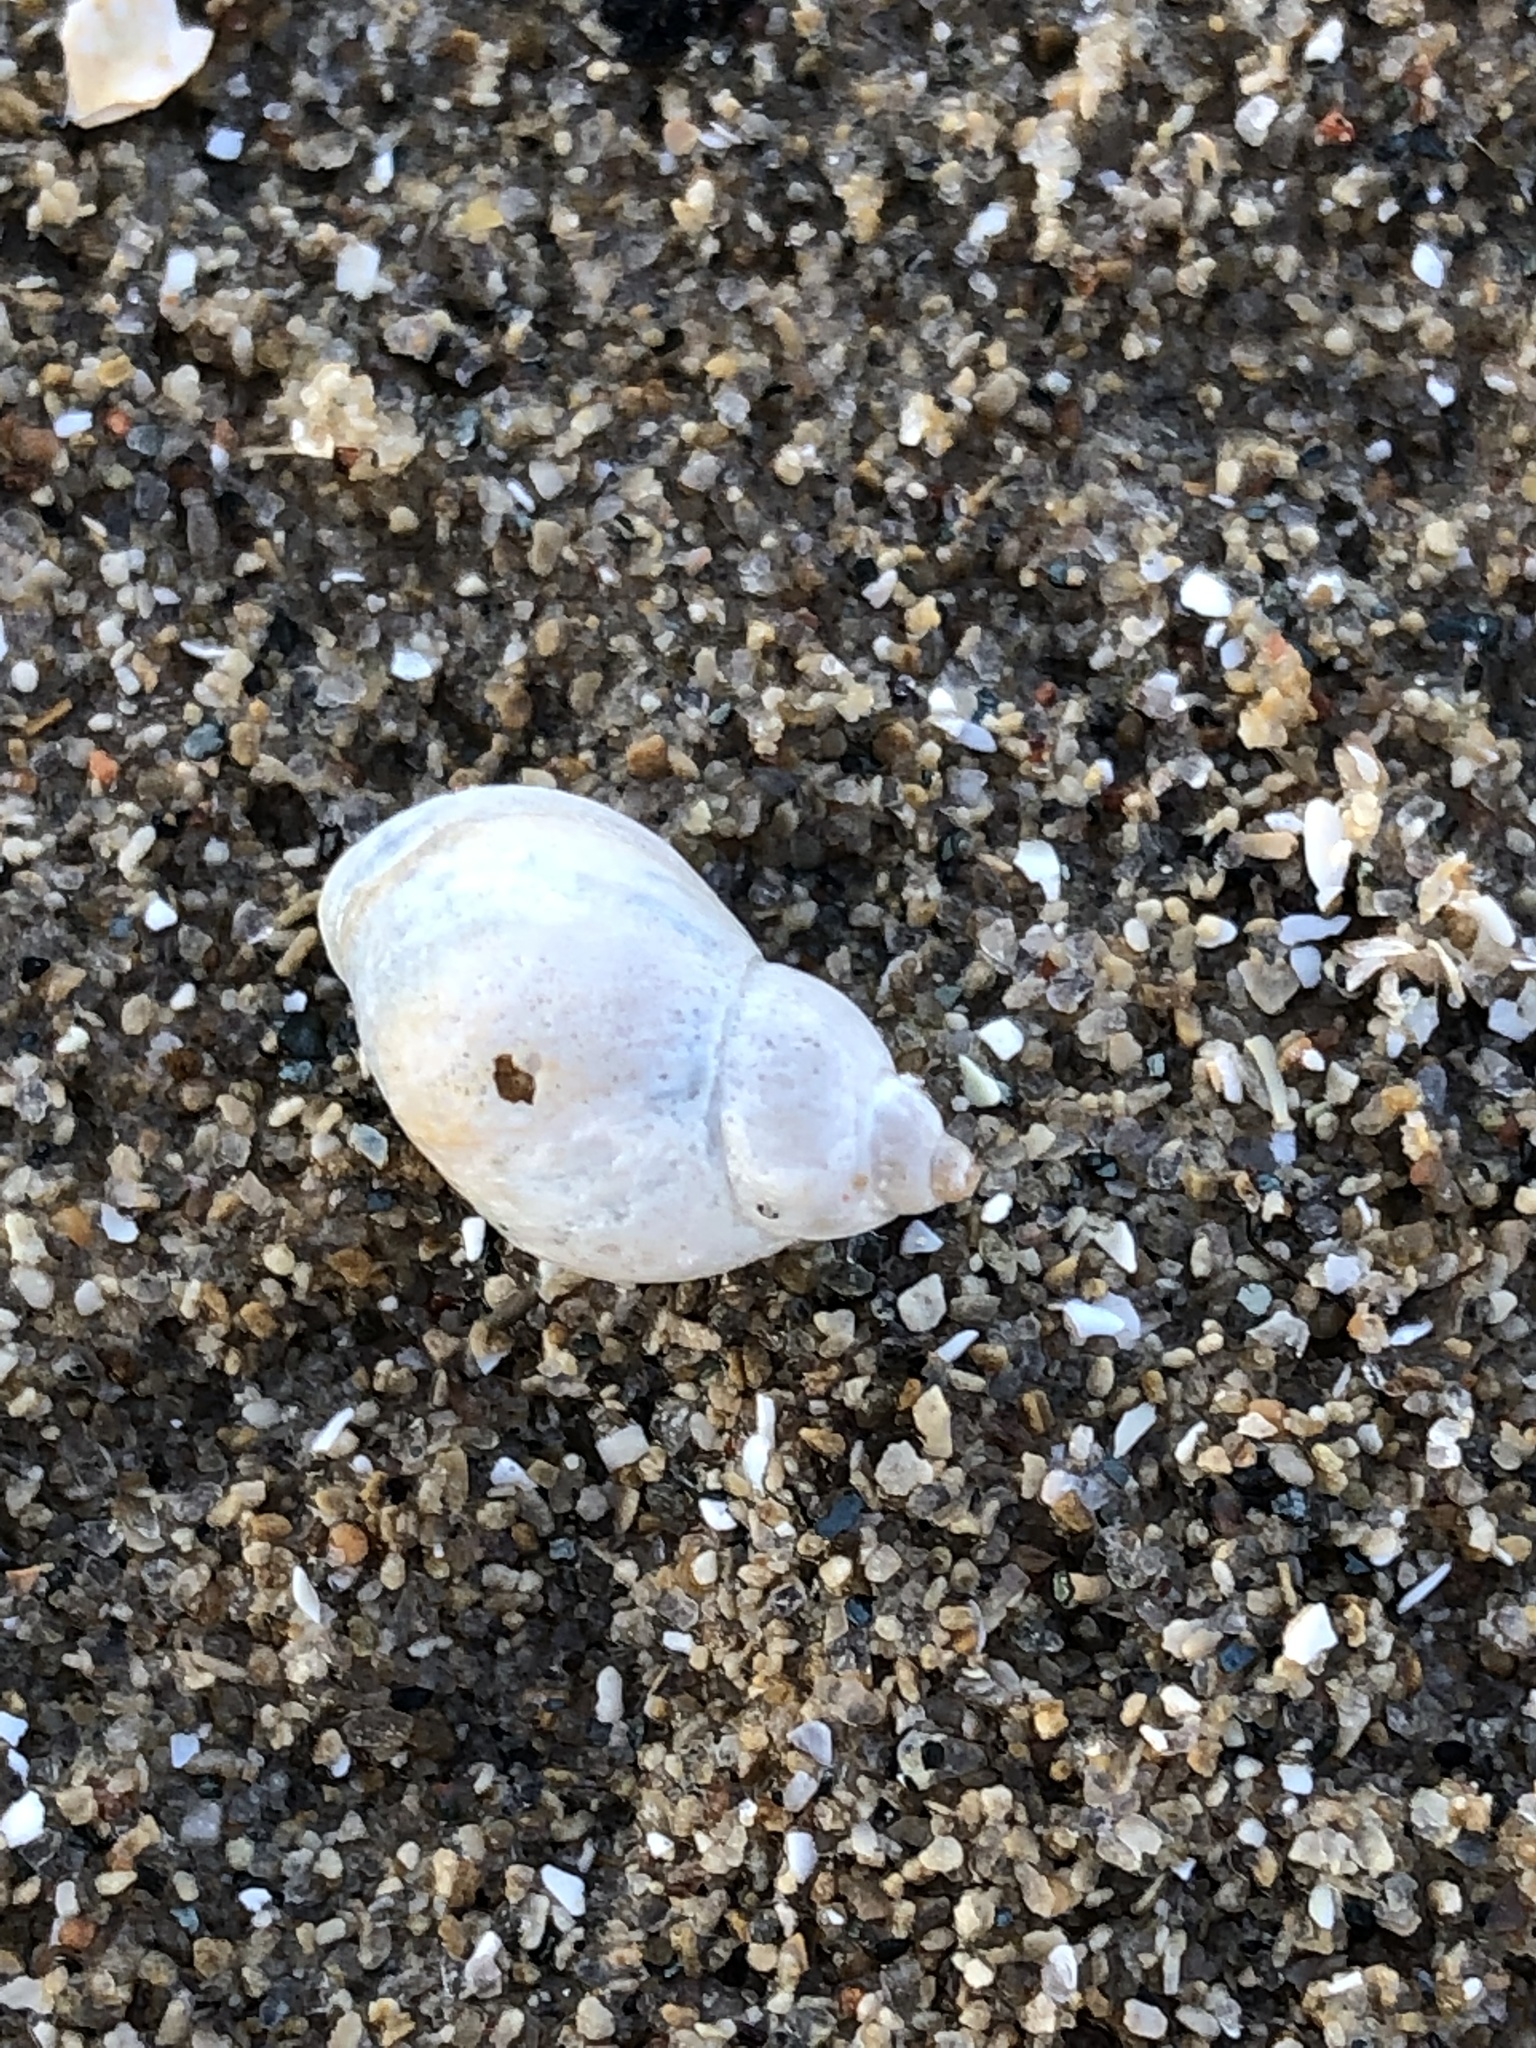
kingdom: Animalia
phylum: Mollusca
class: Gastropoda
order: Littorinimorpha
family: Bithyniidae
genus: Bithynia
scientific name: Bithynia tentaculata
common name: Common bithynia
